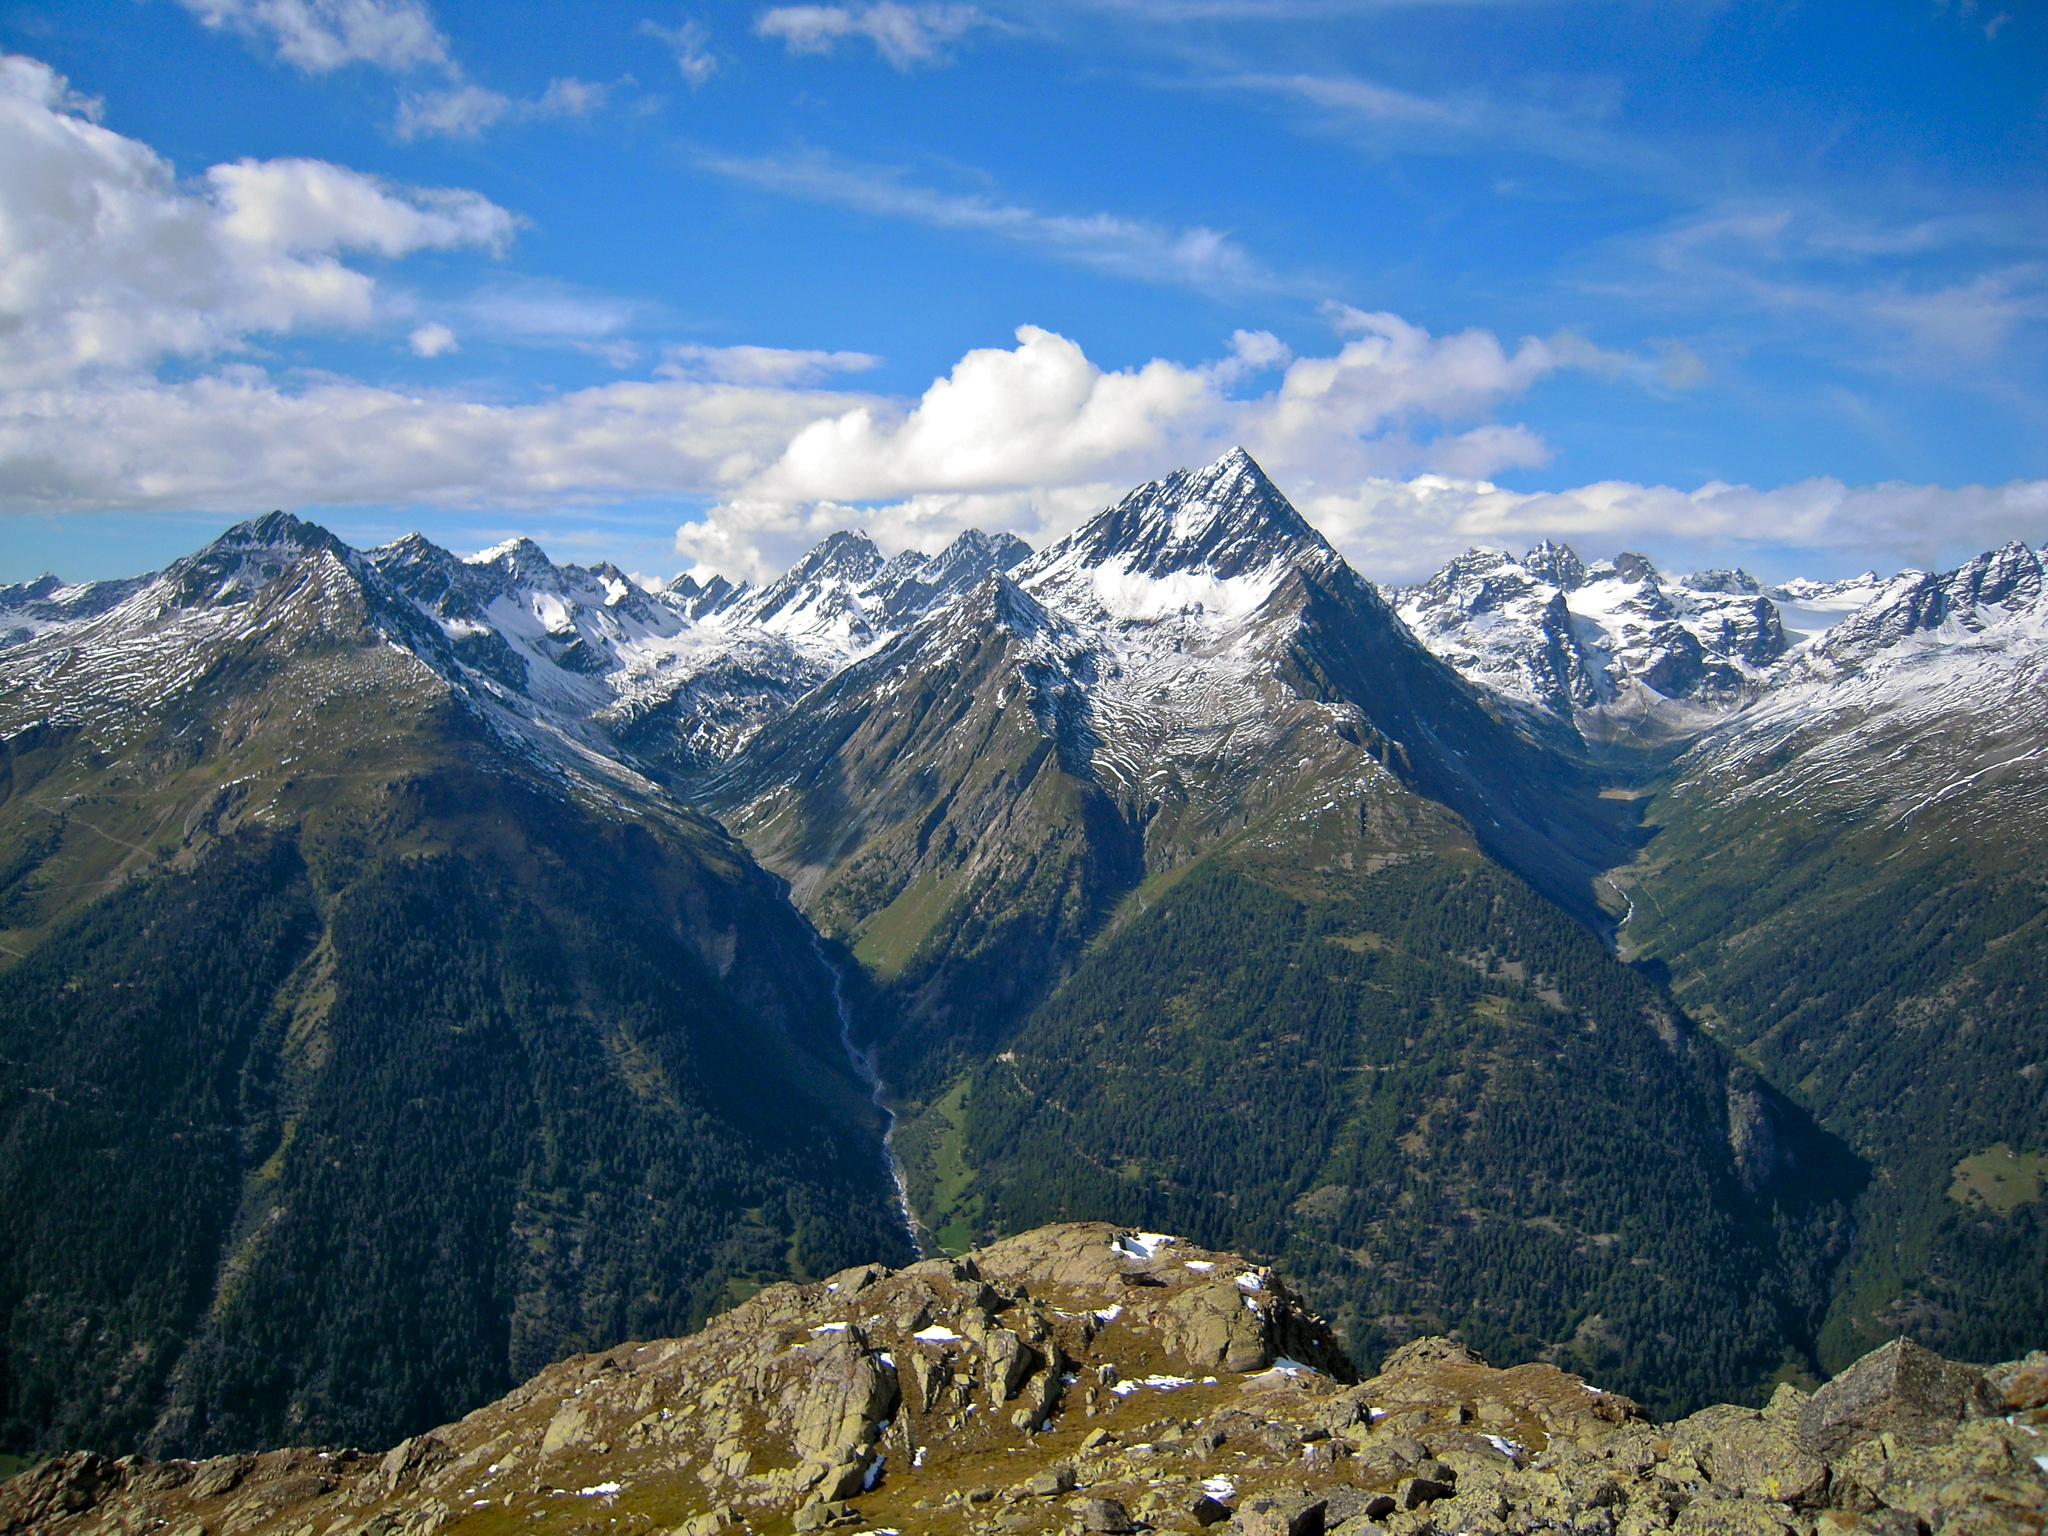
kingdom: Animalia
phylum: Arthropoda
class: Insecta
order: Coleoptera
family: Carabidae
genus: Carabus
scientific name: Carabus sylvestris
